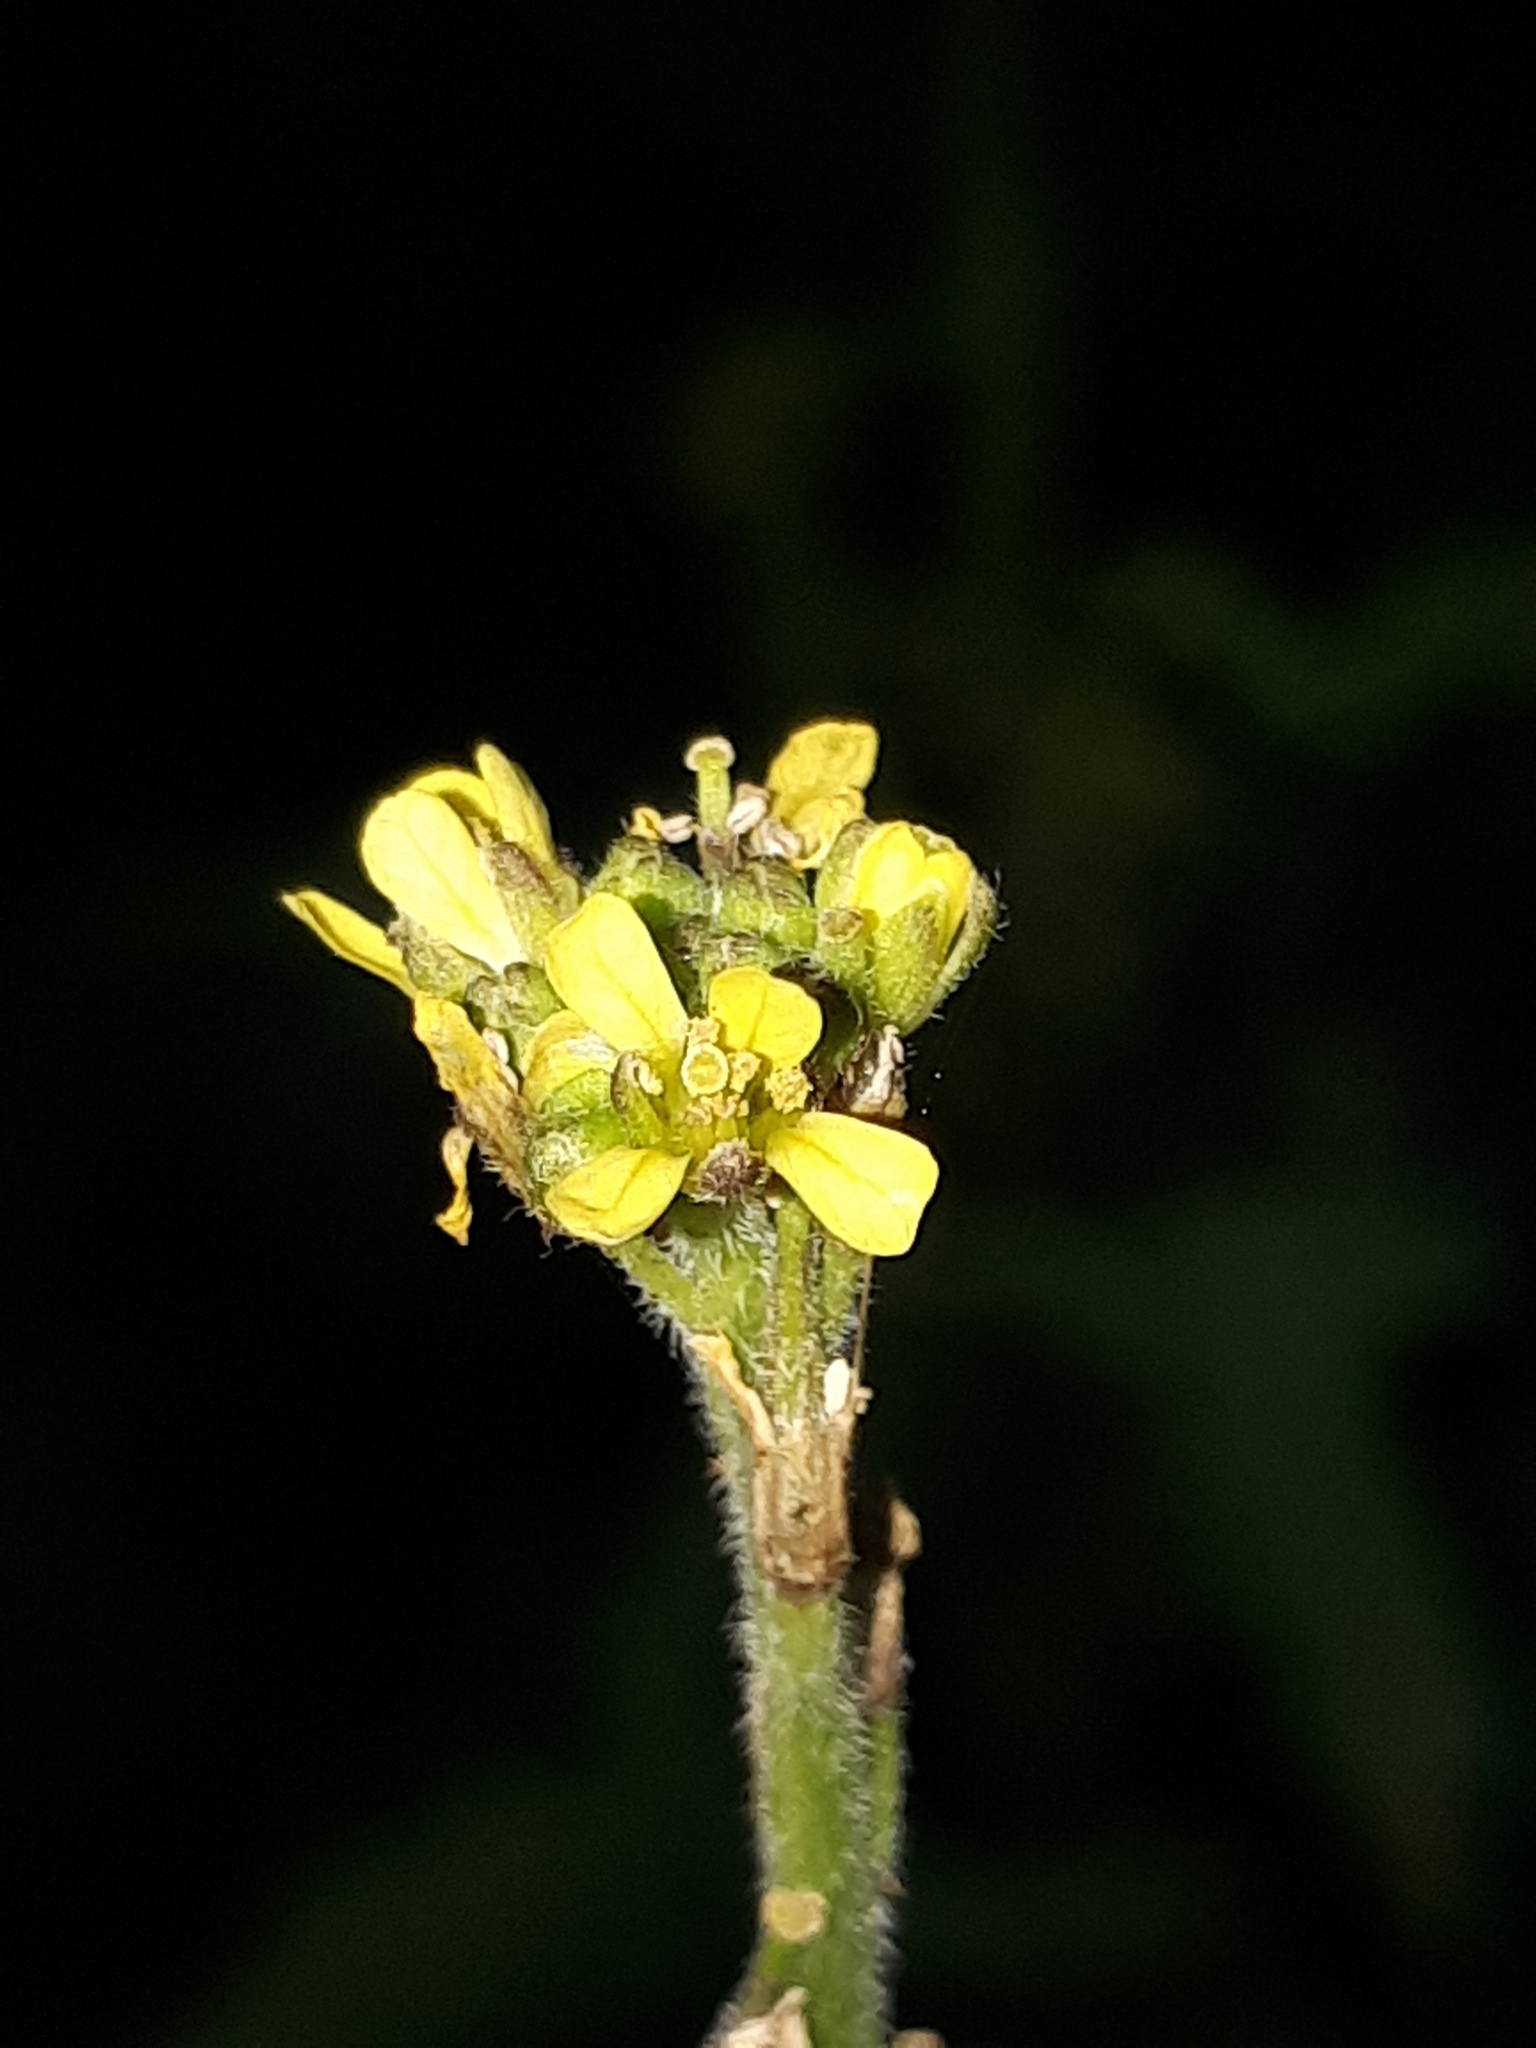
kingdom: Plantae
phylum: Tracheophyta
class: Magnoliopsida
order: Brassicales
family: Brassicaceae
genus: Sisymbrium
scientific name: Sisymbrium officinale
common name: Hedge mustard
